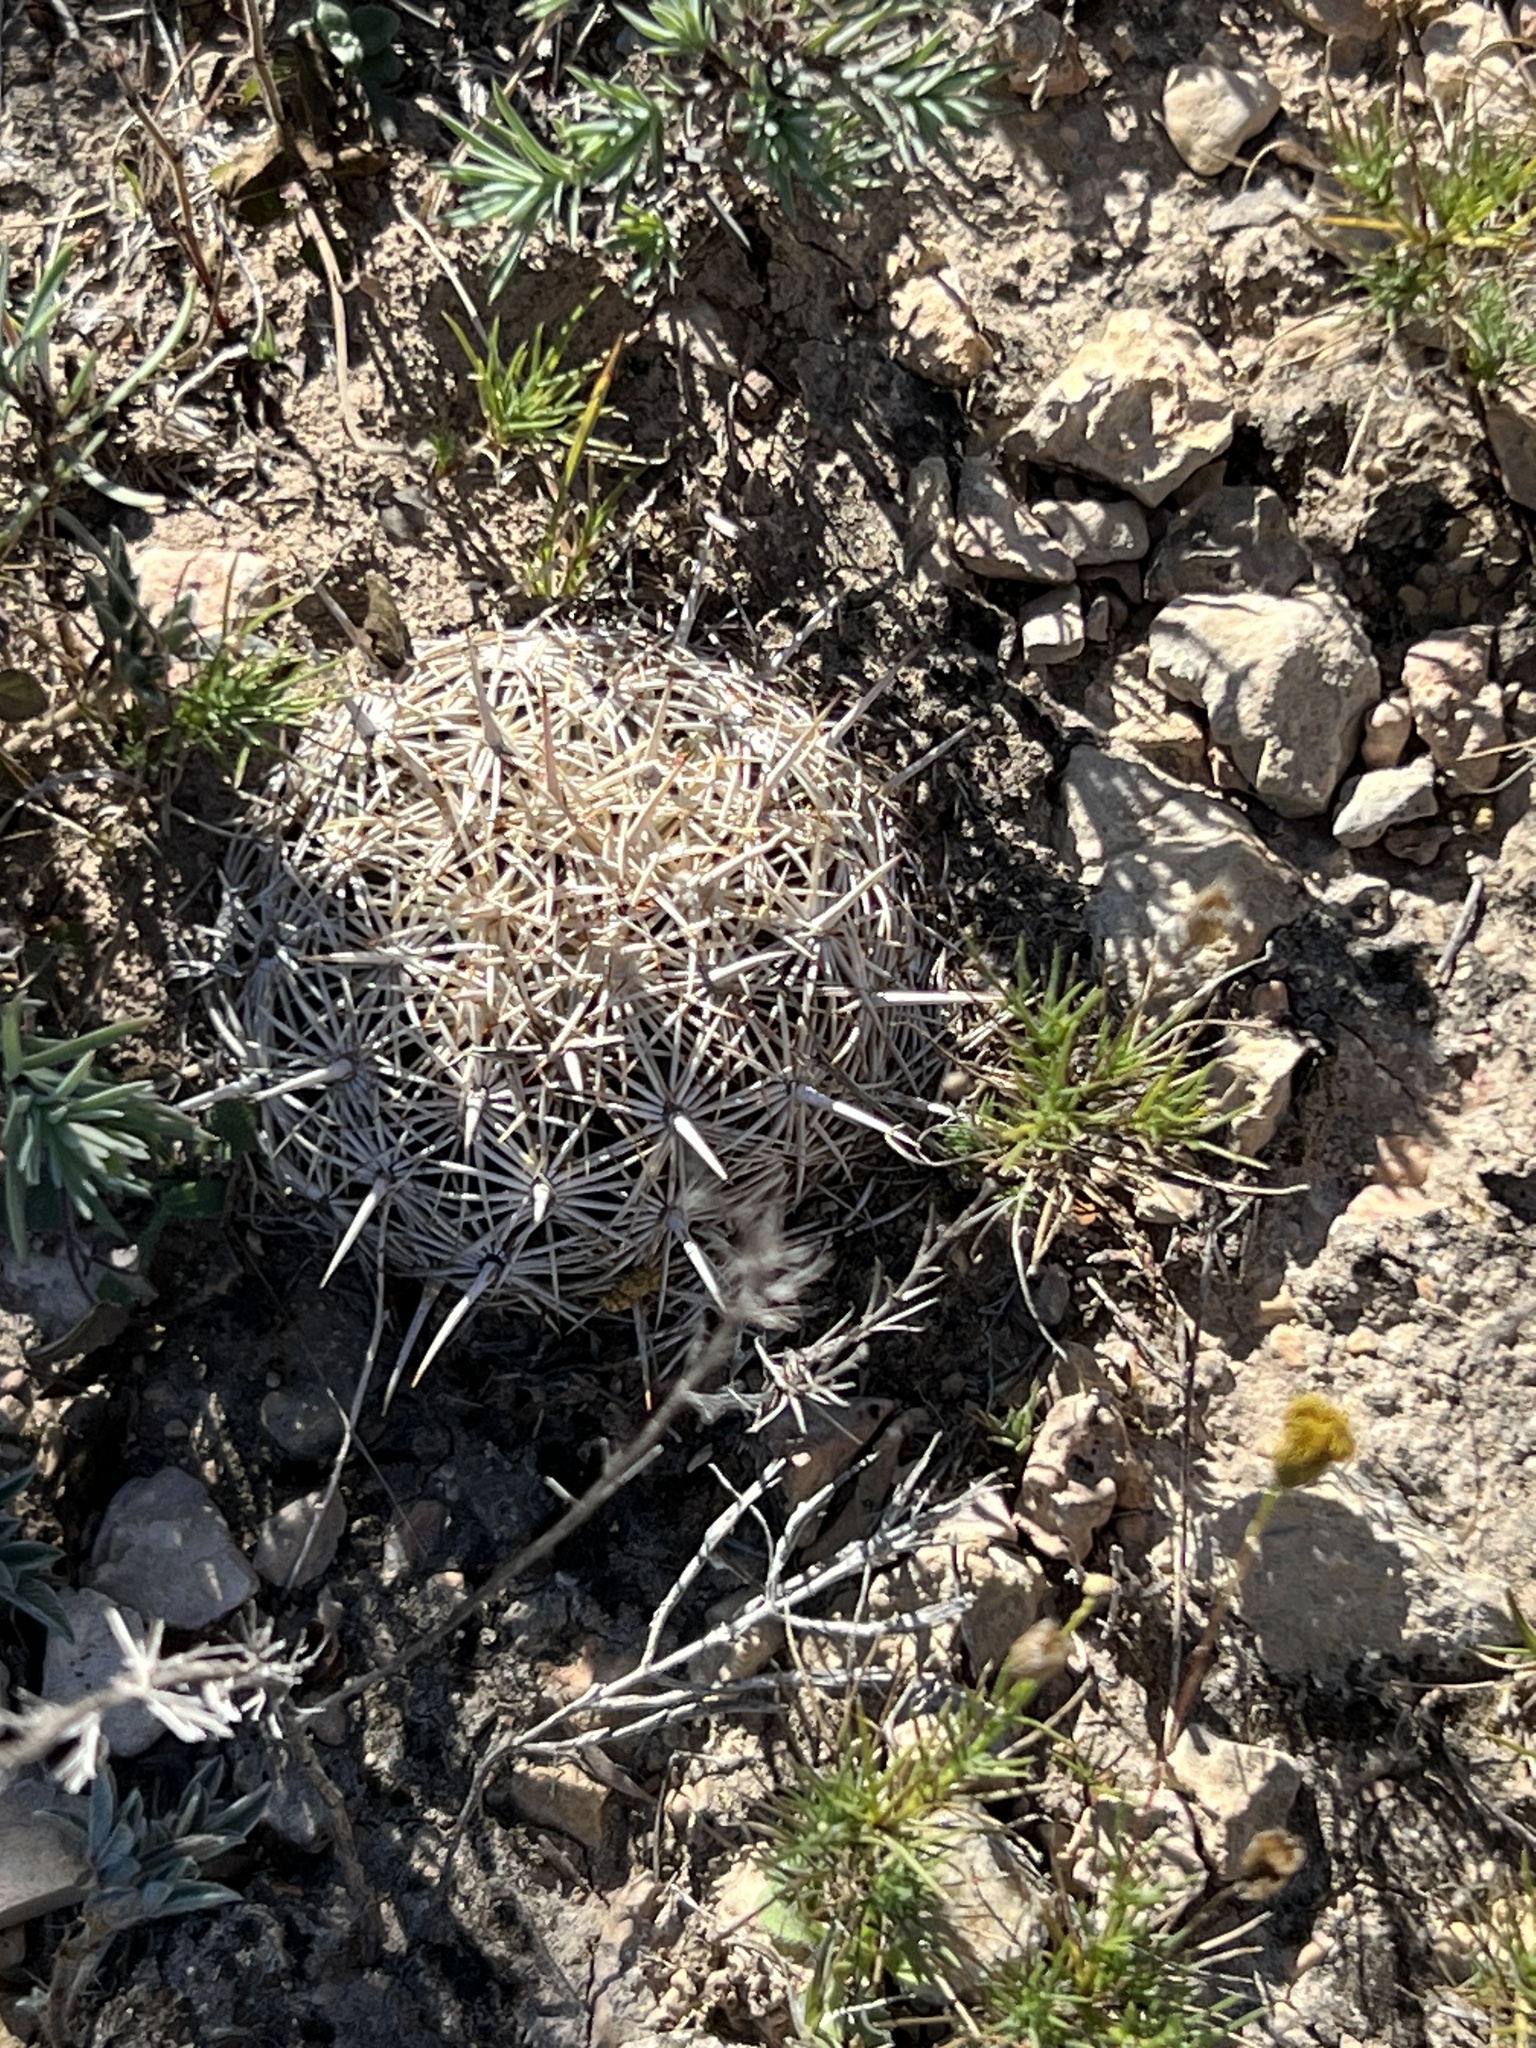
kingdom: Plantae
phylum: Tracheophyta
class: Magnoliopsida
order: Caryophyllales
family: Cactaceae
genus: Coryphantha
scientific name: Coryphantha echinus
